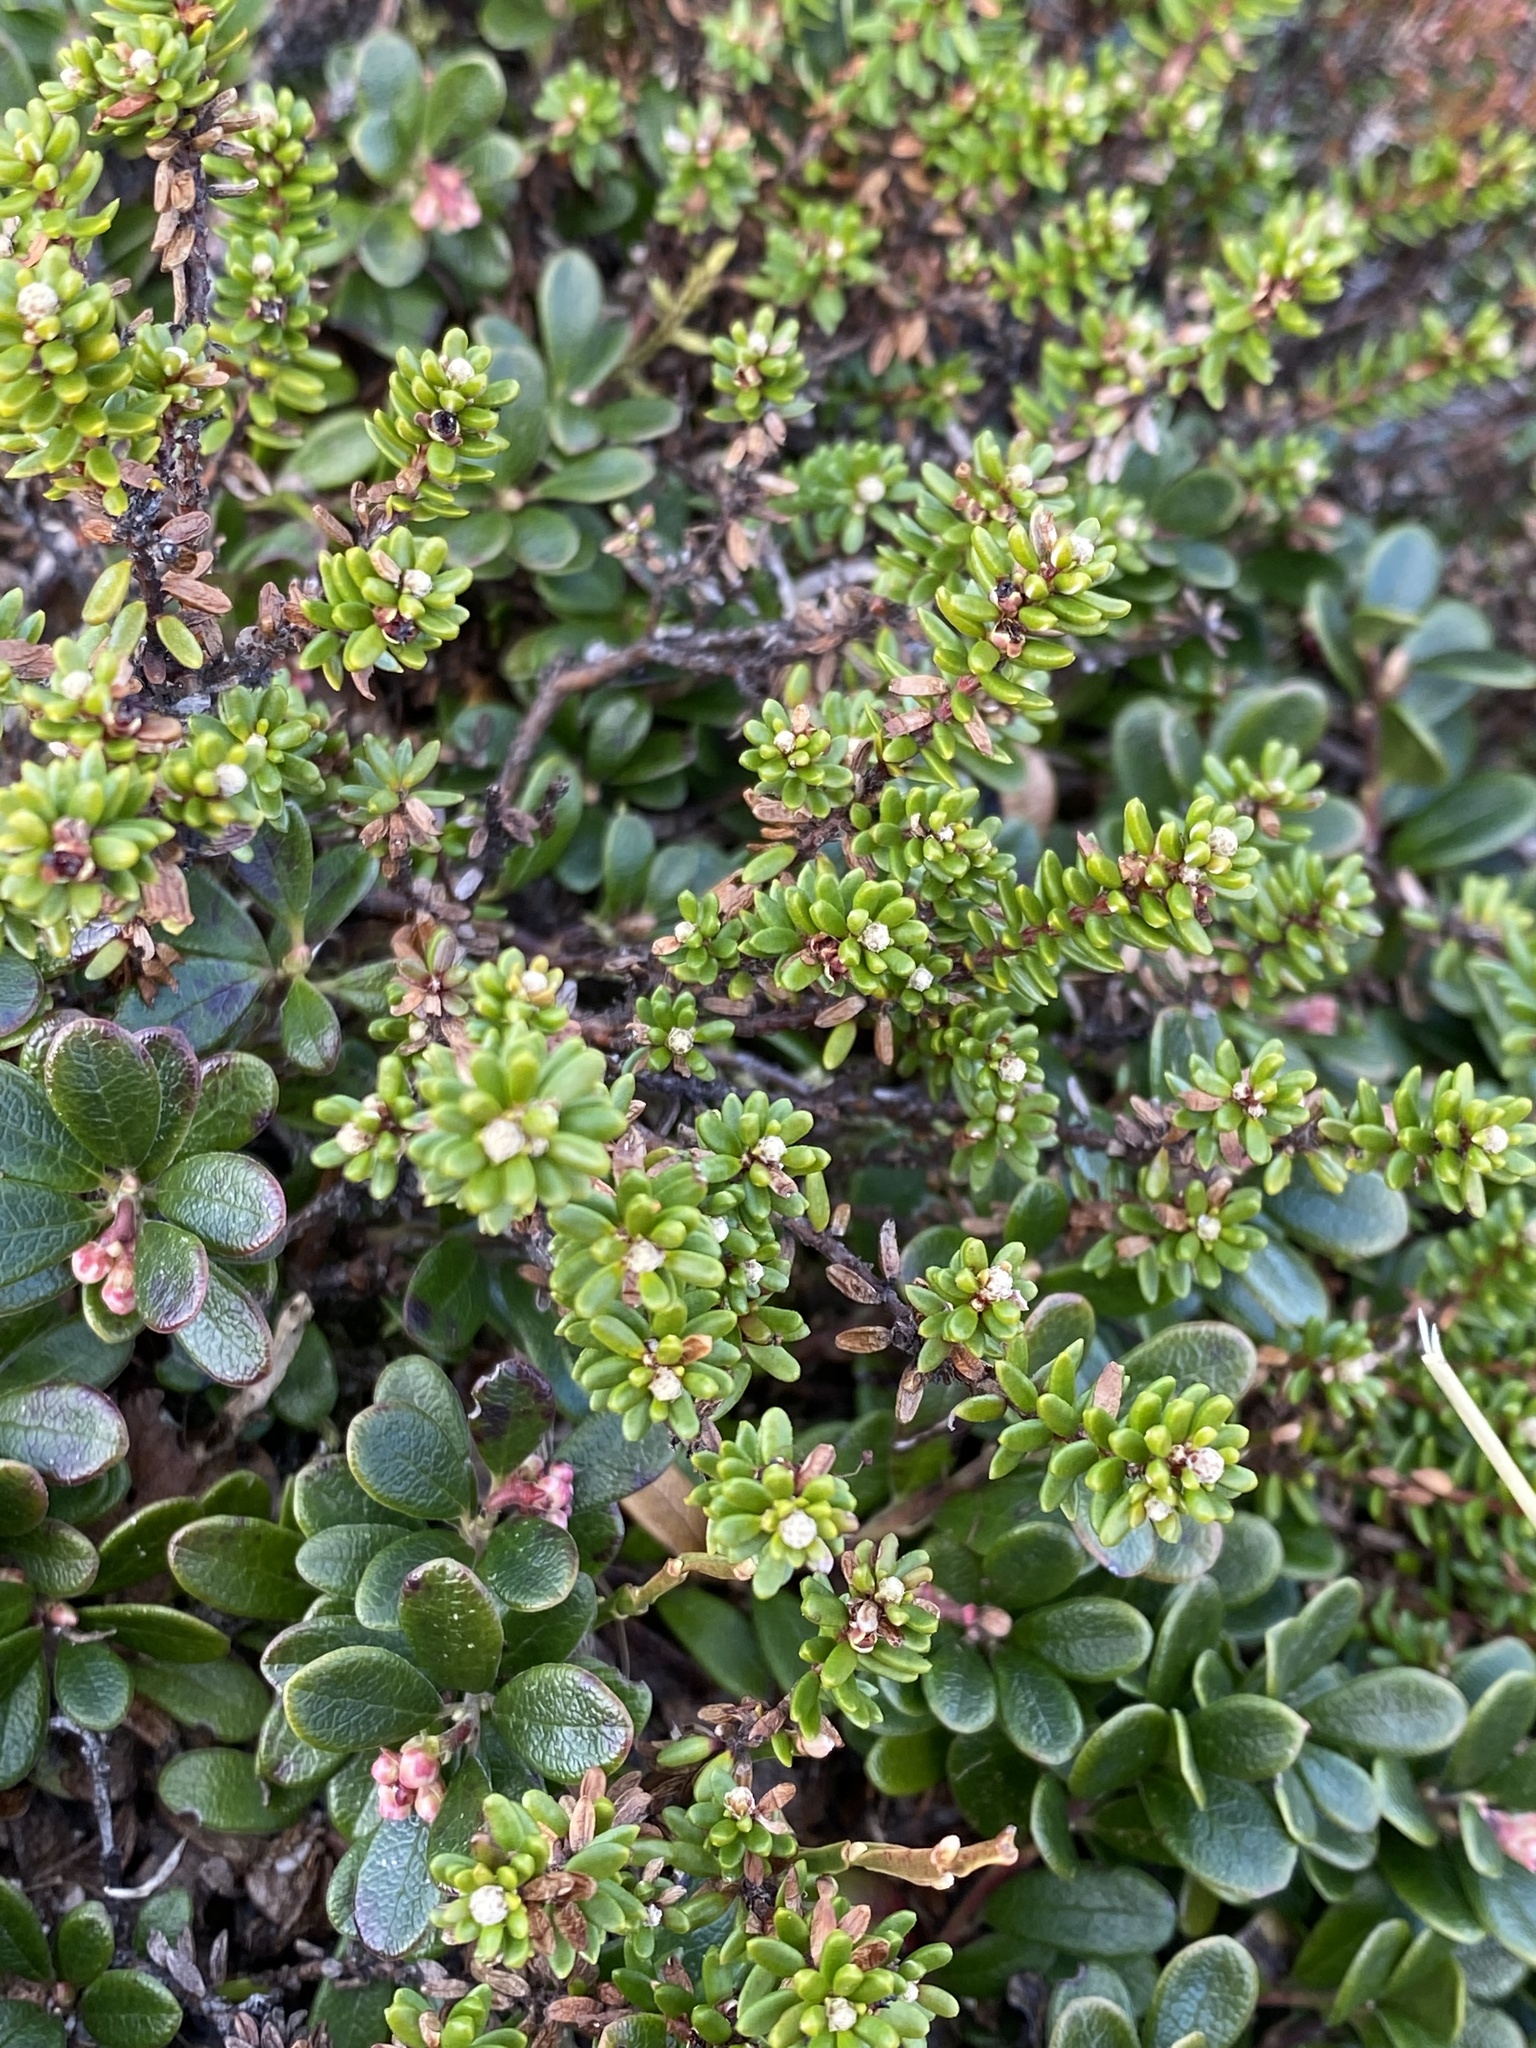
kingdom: Plantae
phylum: Tracheophyta
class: Magnoliopsida
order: Ericales
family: Ericaceae
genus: Empetrum
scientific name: Empetrum nigrum
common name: Black crowberry
